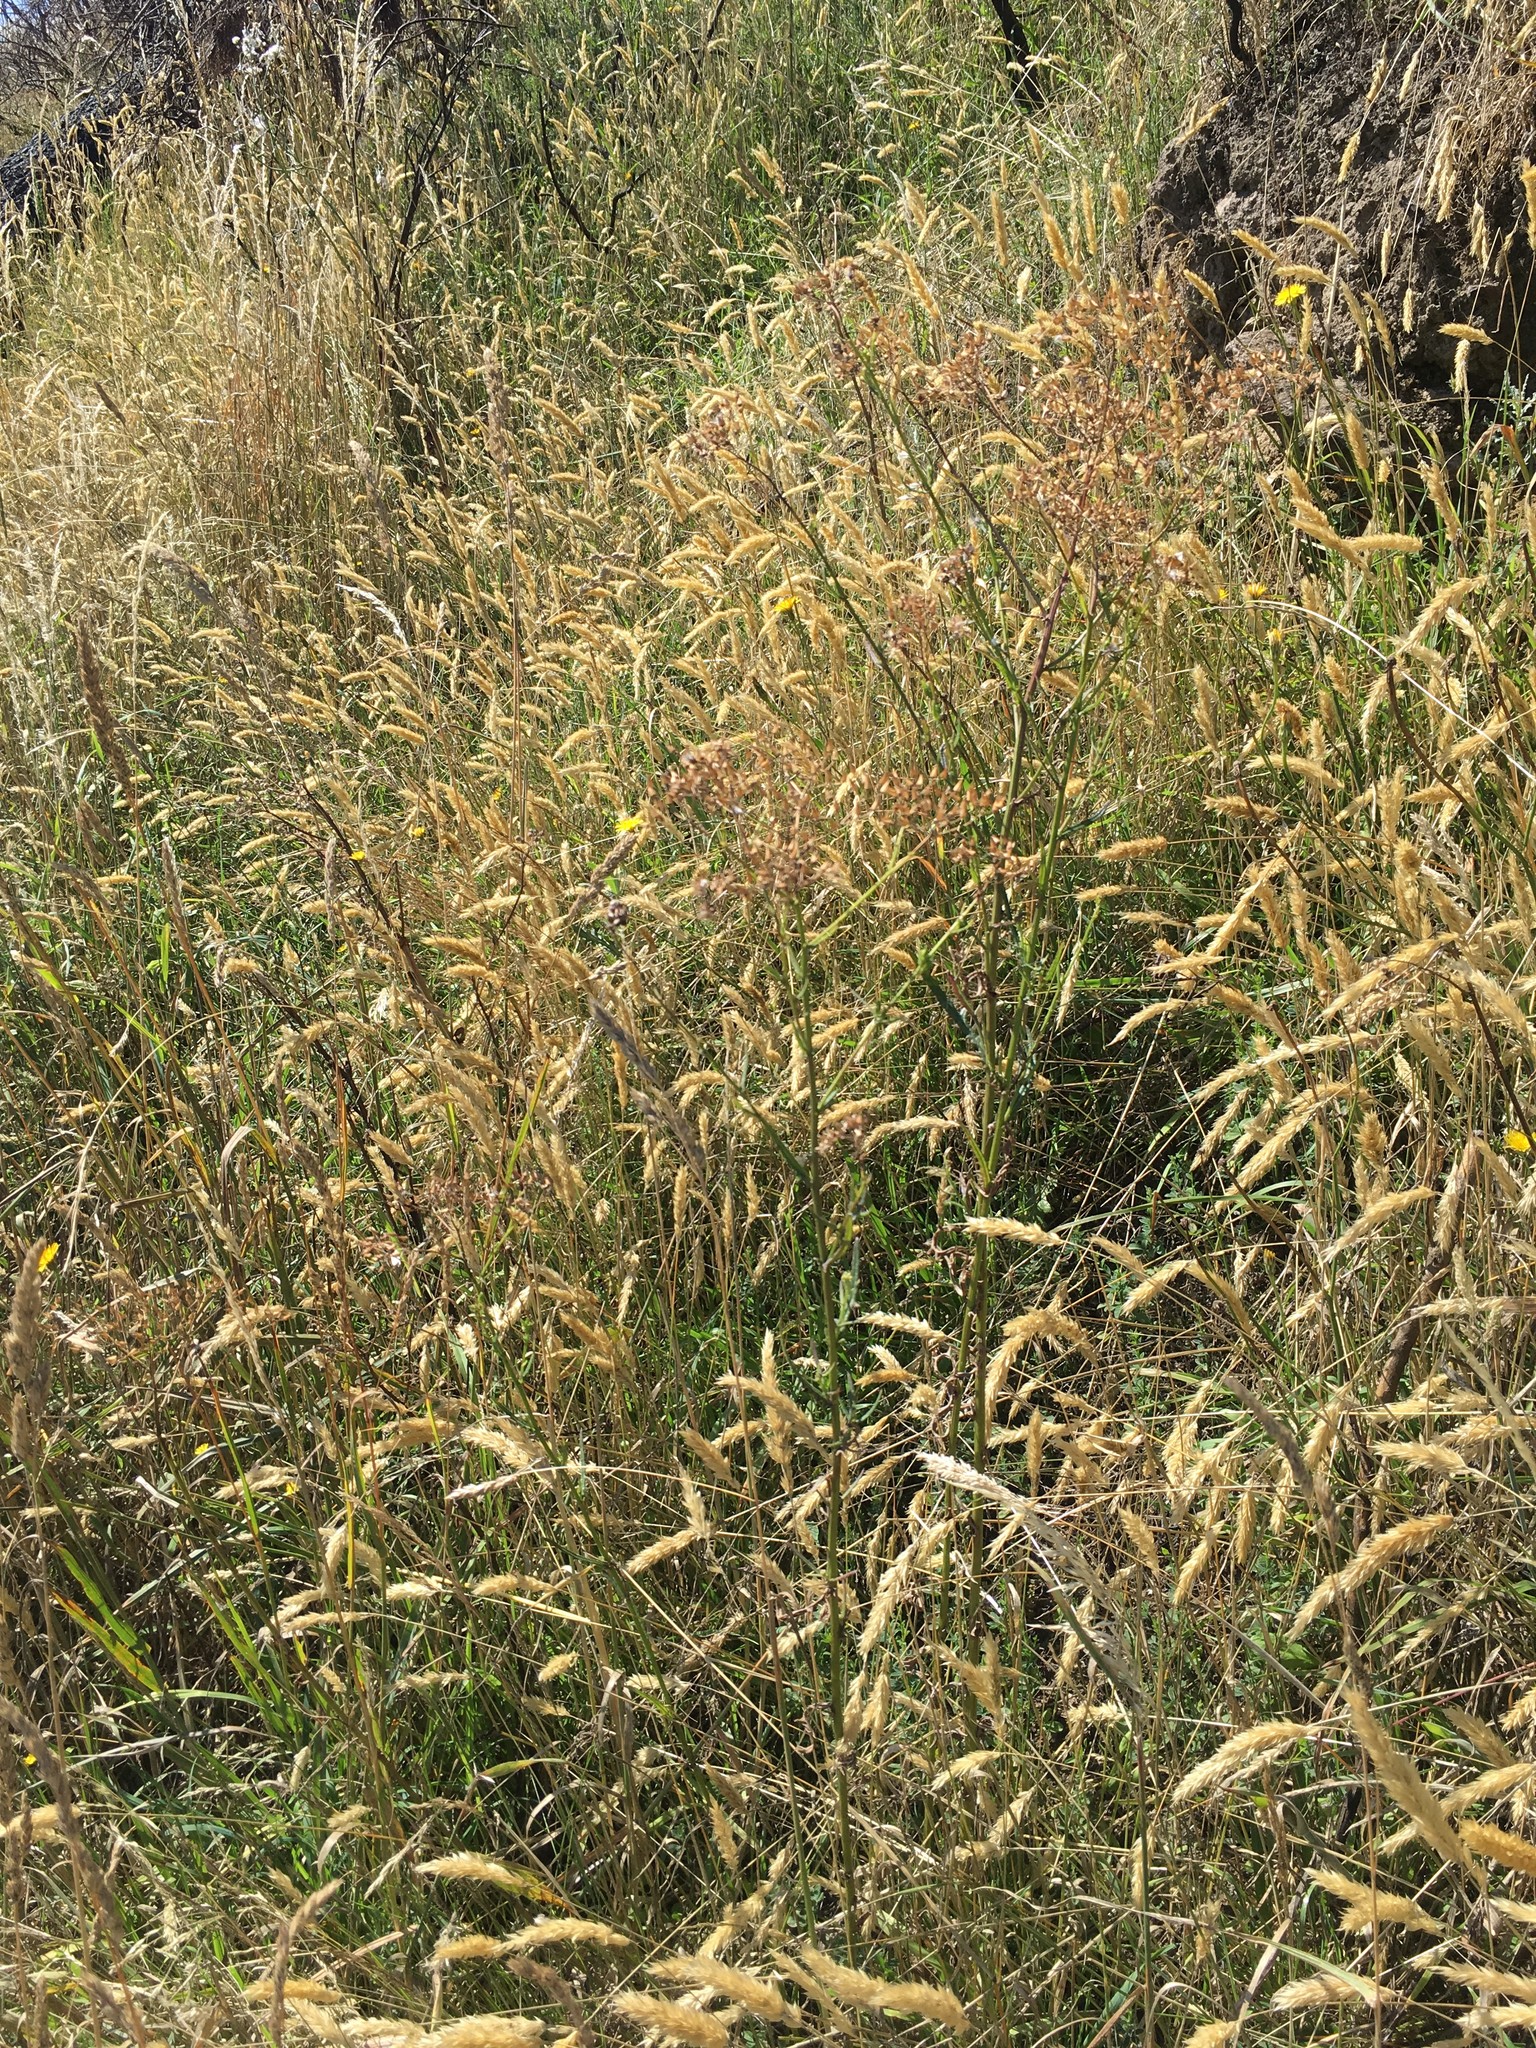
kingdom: Plantae
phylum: Tracheophyta
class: Magnoliopsida
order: Asterales
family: Asteraceae
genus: Senecio
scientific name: Senecio hispidulus
